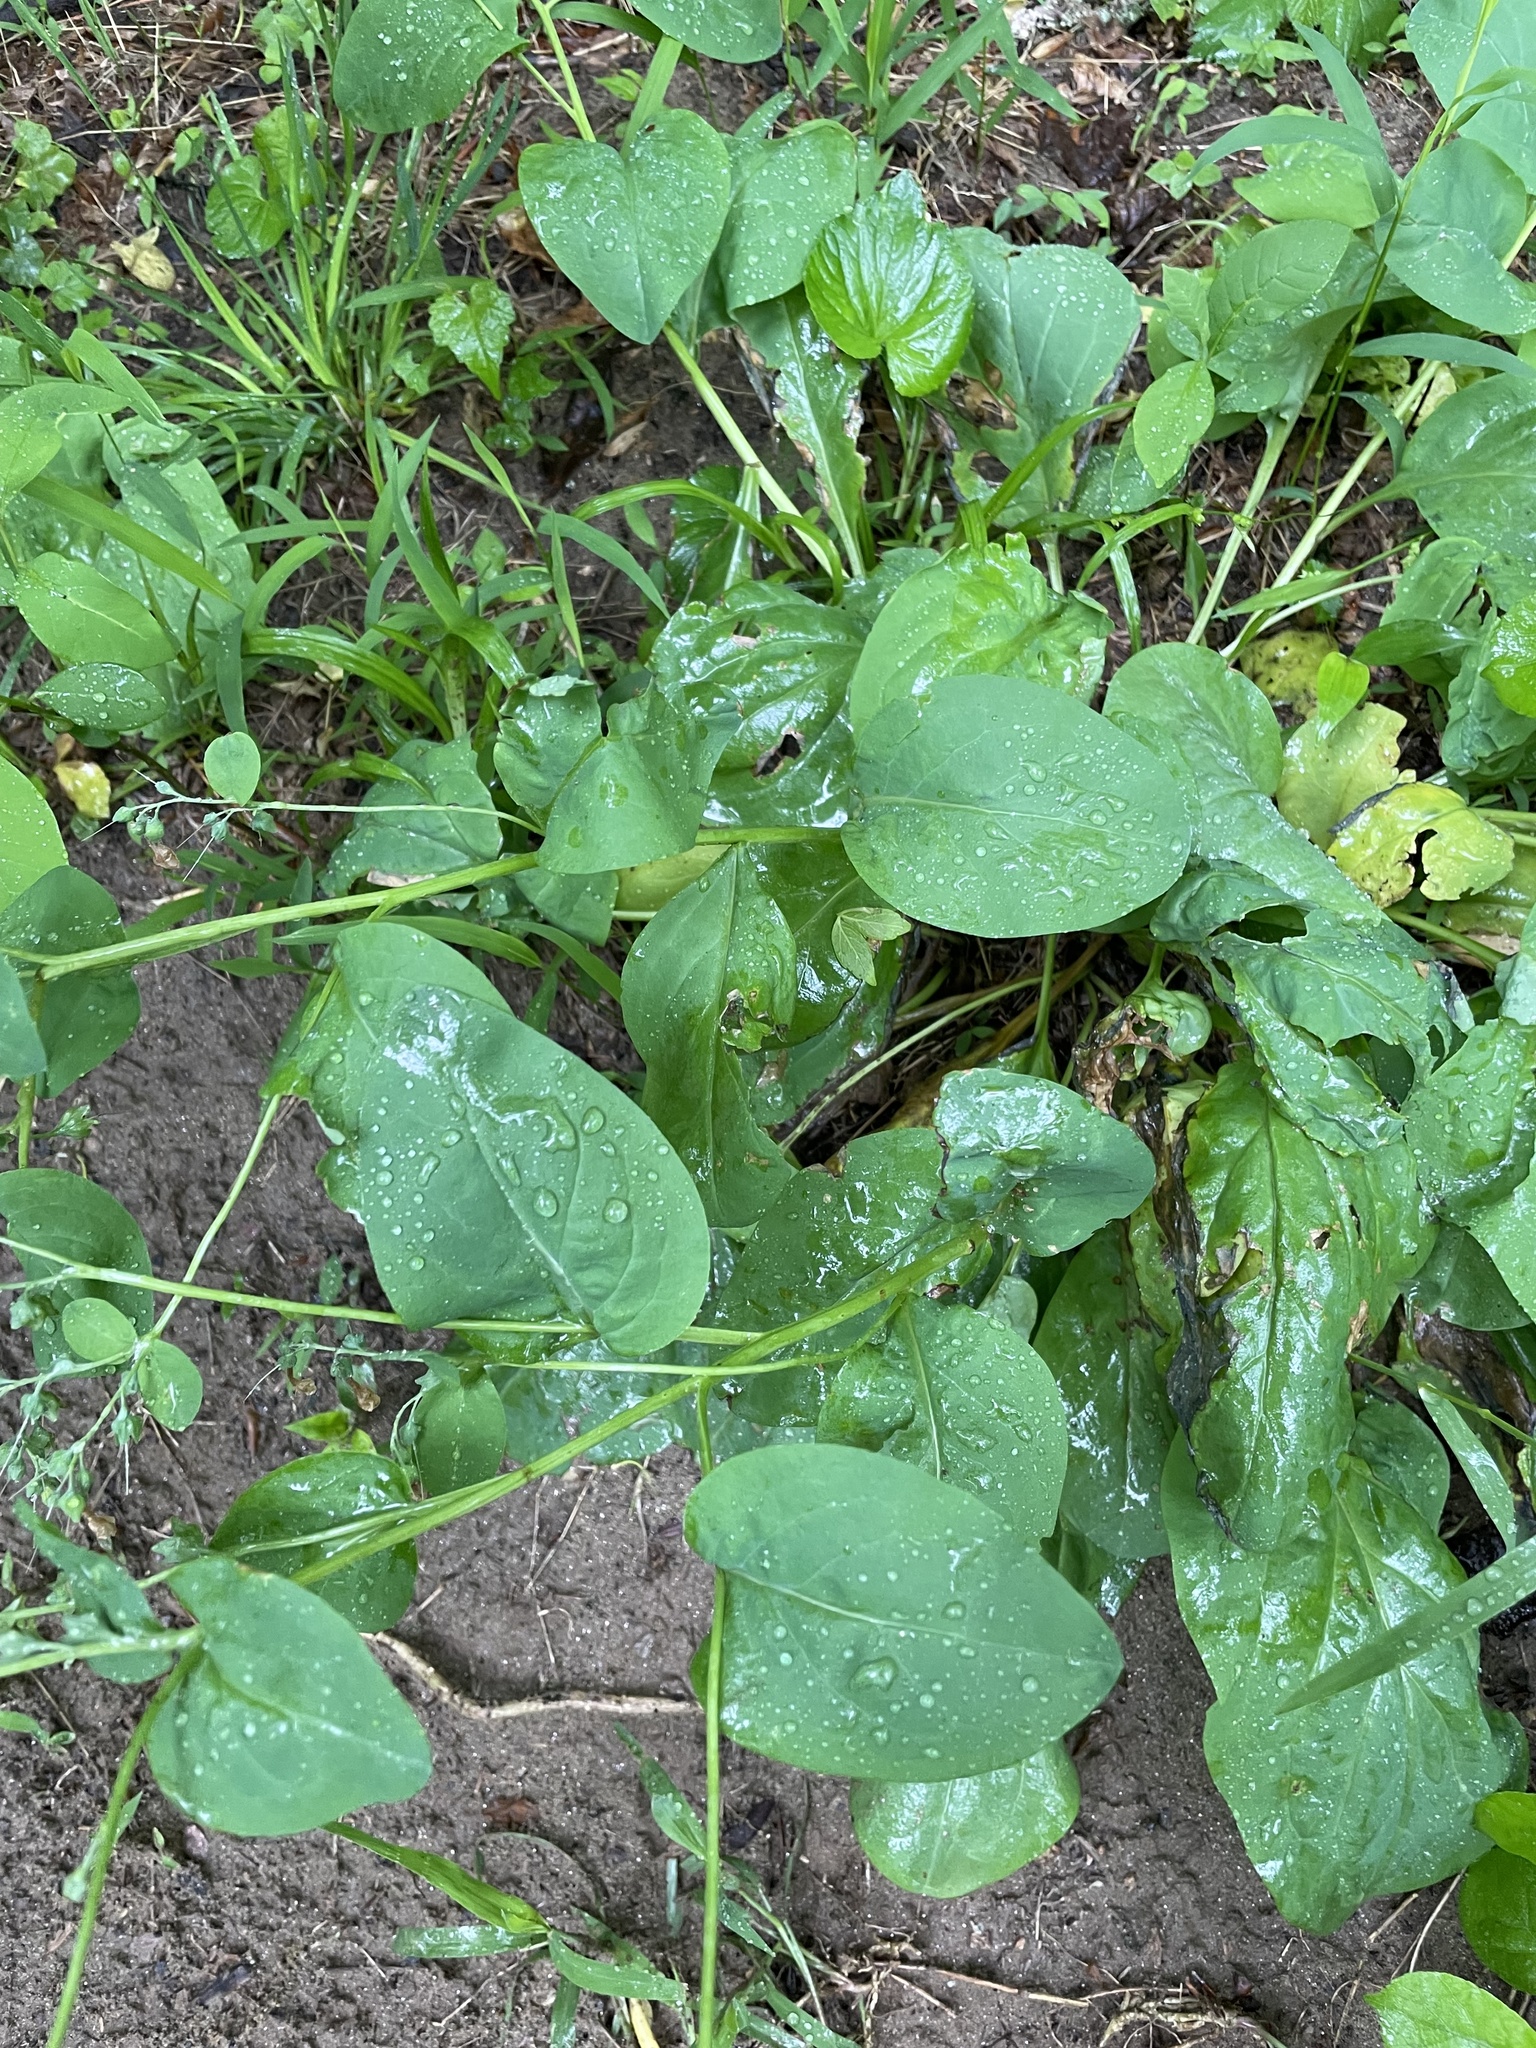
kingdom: Plantae
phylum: Tracheophyta
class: Magnoliopsida
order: Boraginales
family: Boraginaceae
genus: Mertensia
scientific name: Mertensia virginica
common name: Virginia bluebells
